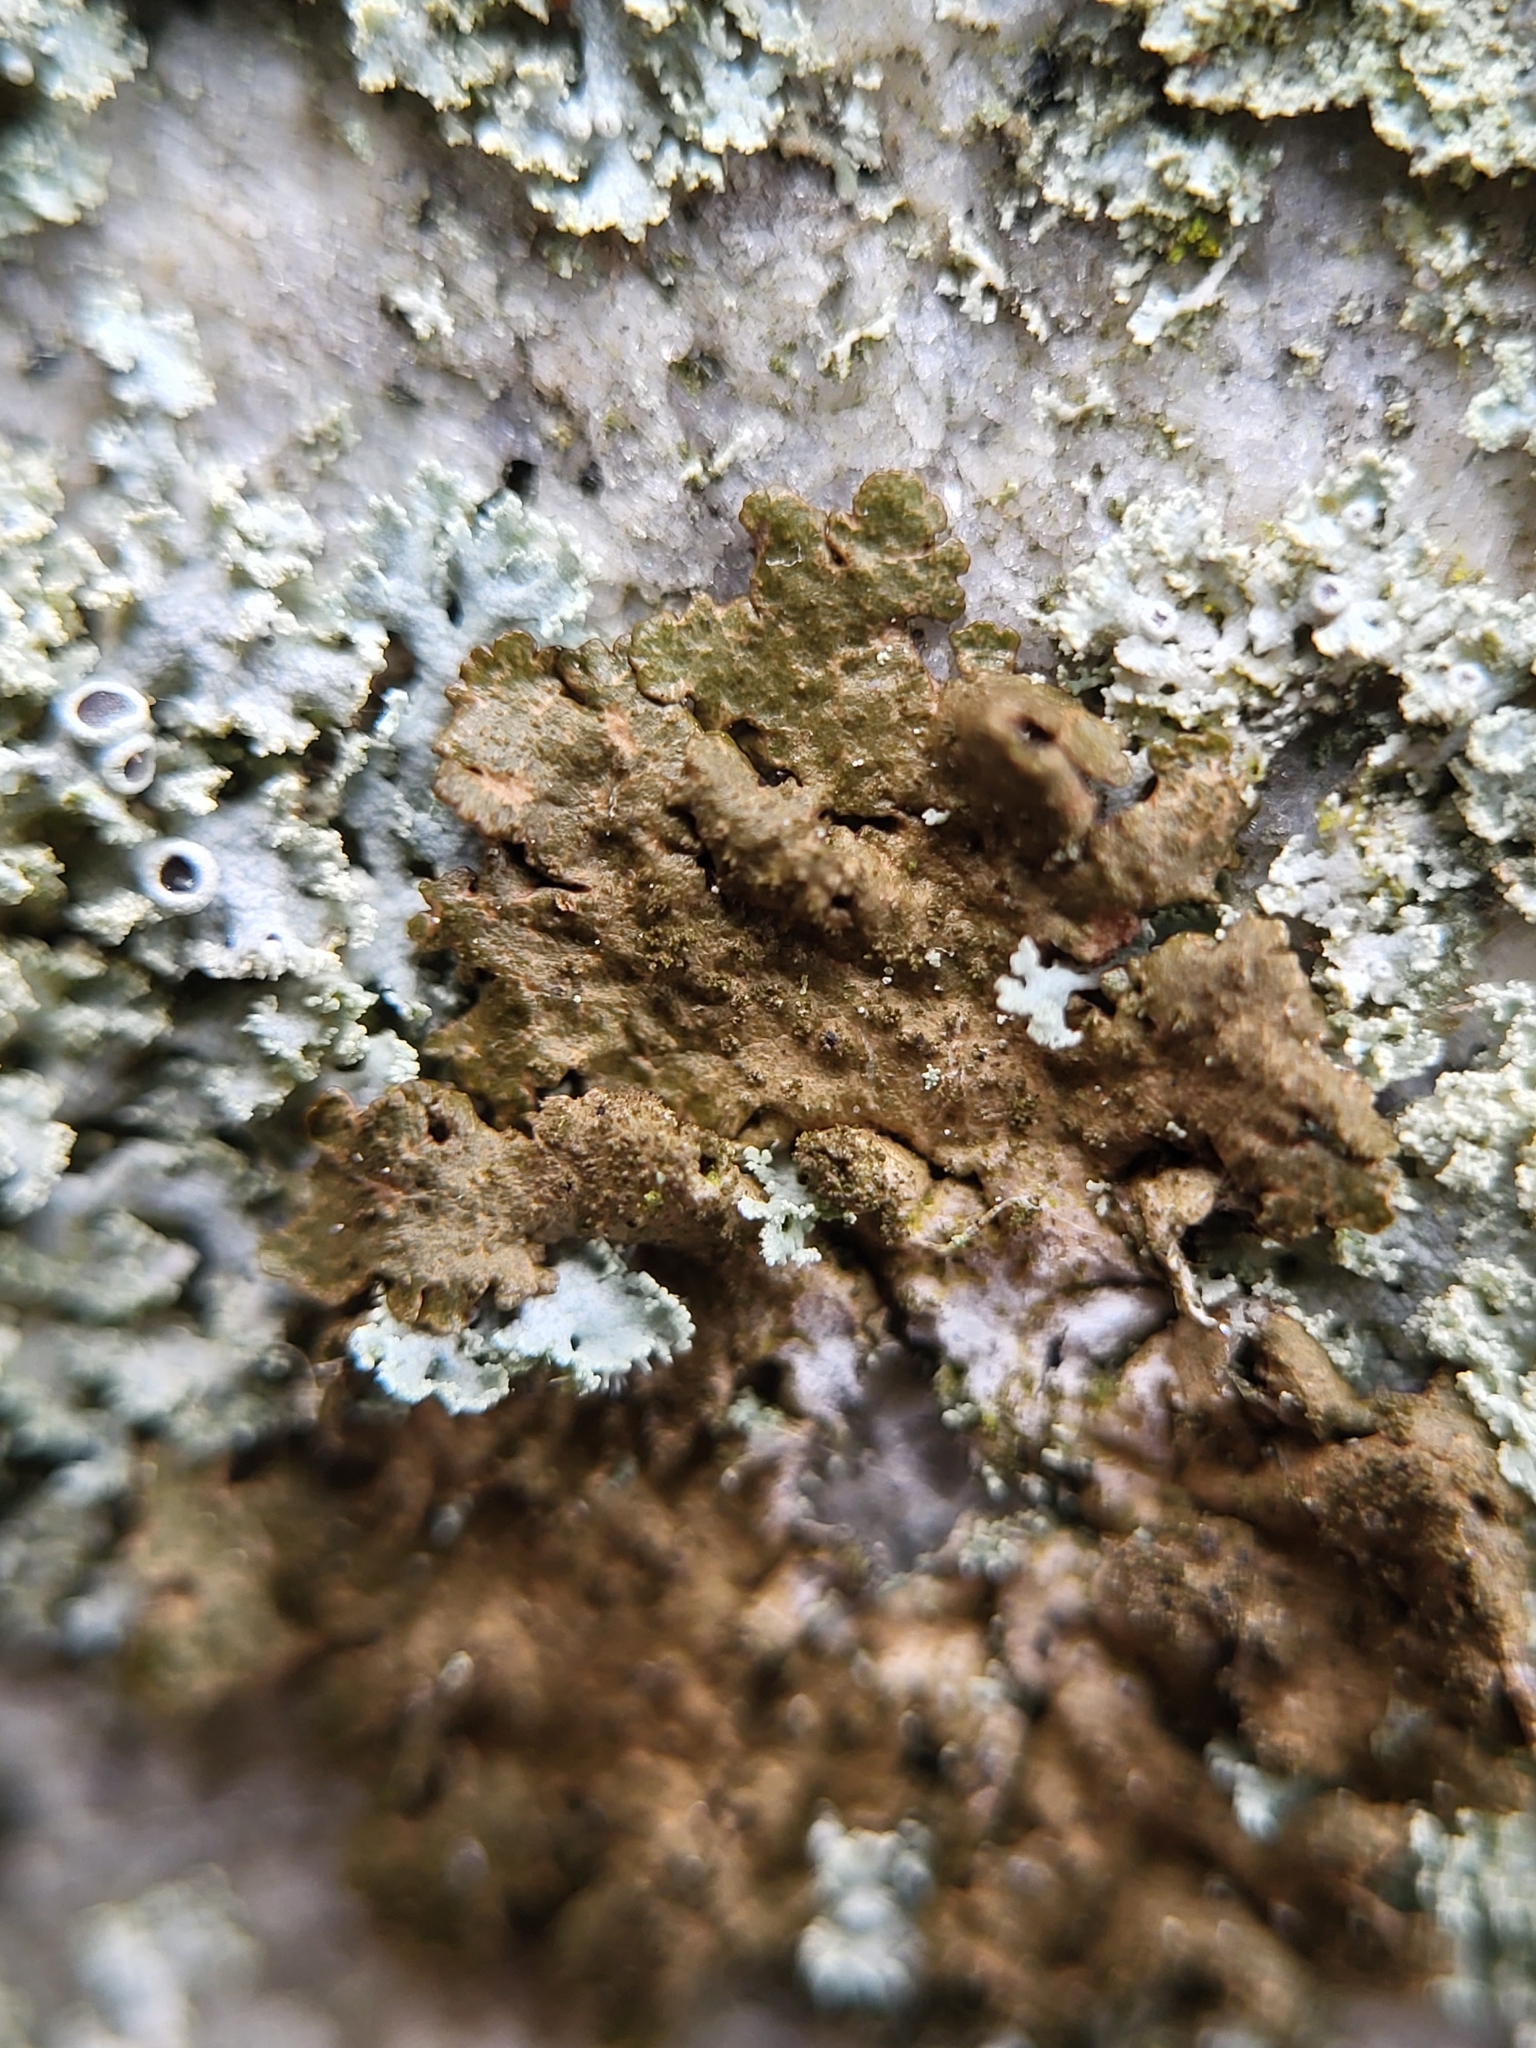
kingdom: Fungi
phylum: Ascomycota
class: Lecanoromycetes
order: Lecanorales
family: Parmeliaceae
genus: Melanelixia
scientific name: Melanelixia subaurifera
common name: Abraded camouflage lichen
